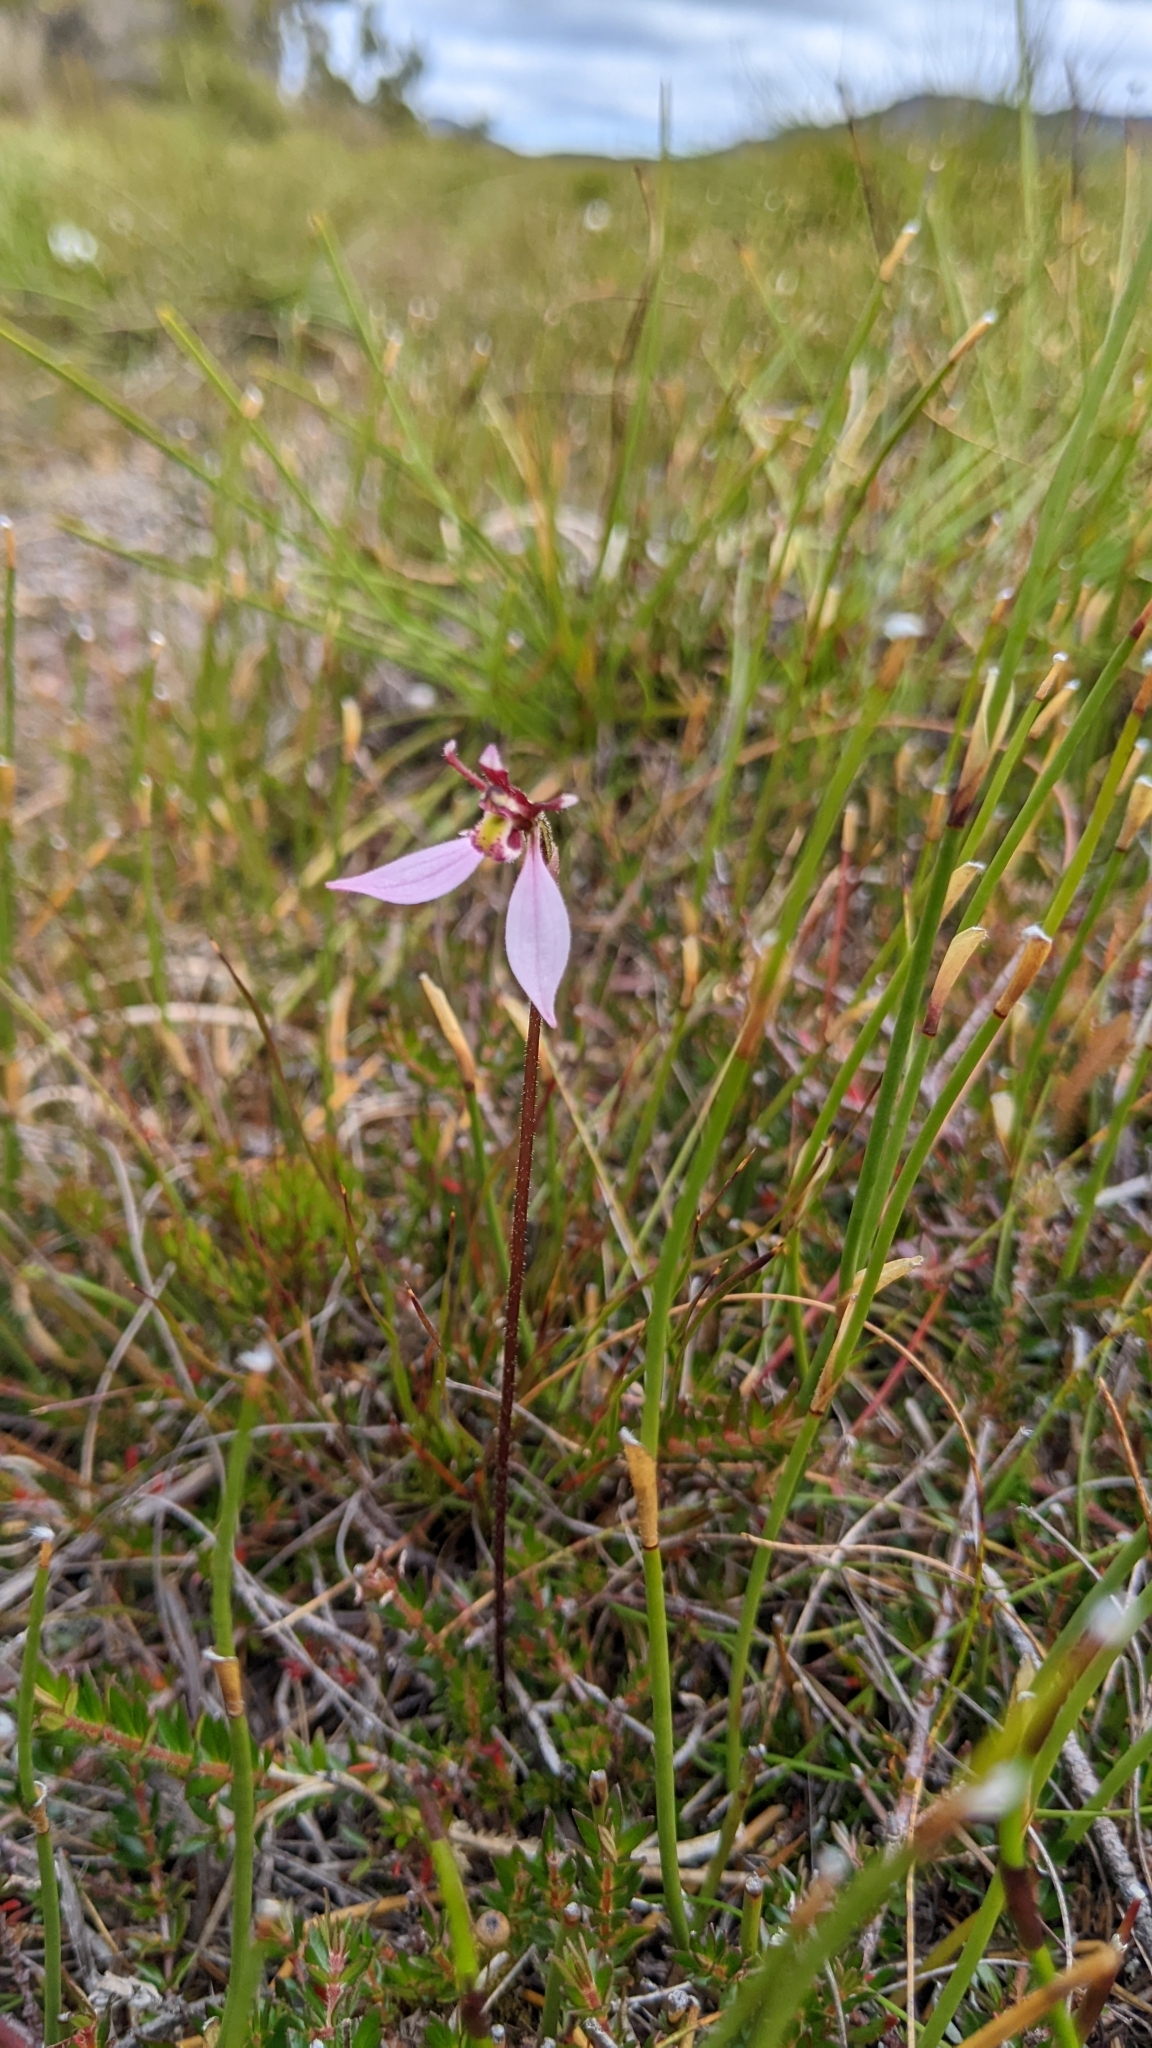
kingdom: Plantae
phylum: Tracheophyta
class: Liliopsida
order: Asparagales
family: Orchidaceae
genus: Eriochilus
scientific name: Eriochilus cucullatus
